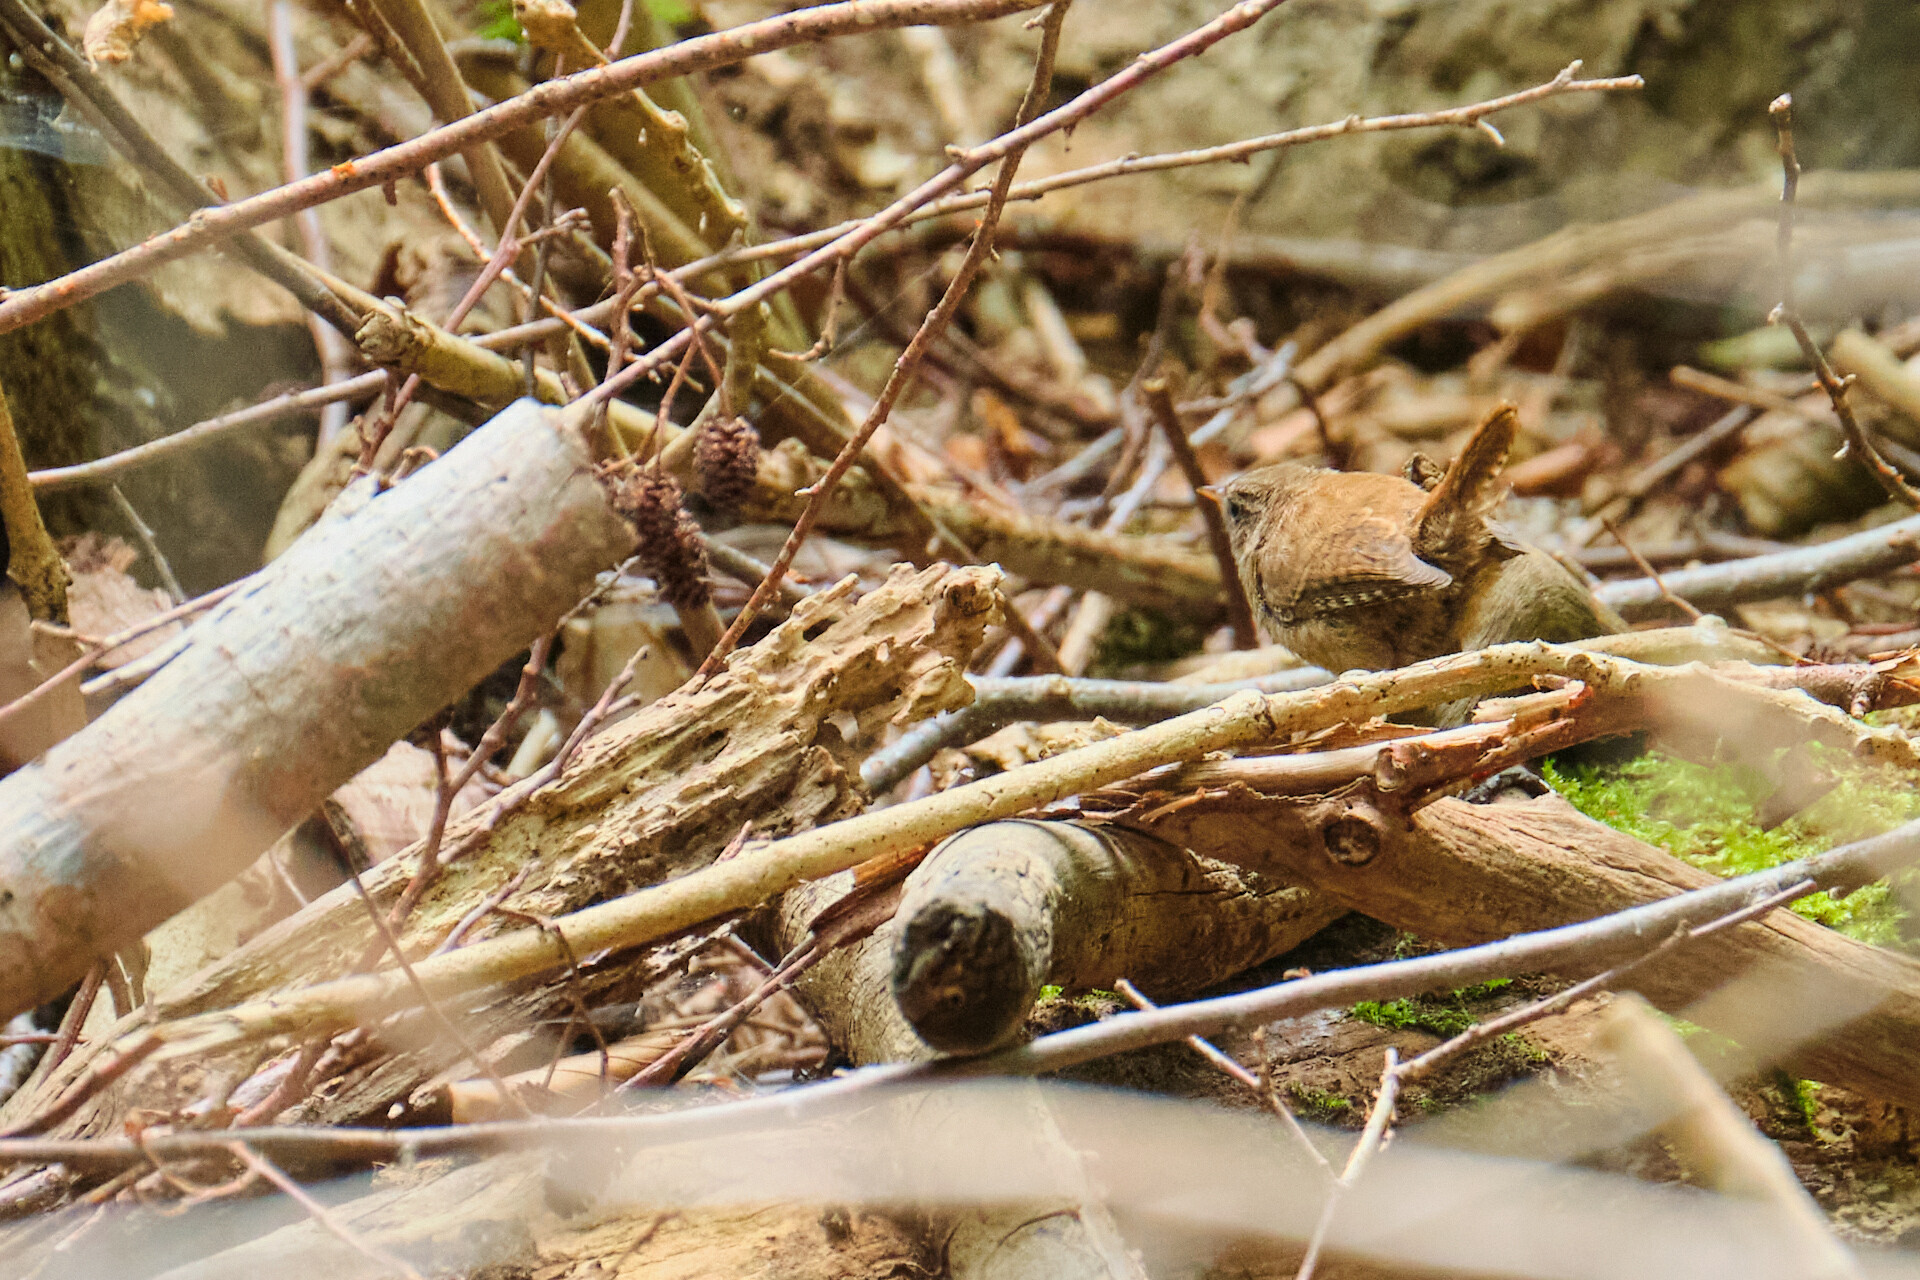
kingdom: Animalia
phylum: Chordata
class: Aves
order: Passeriformes
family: Troglodytidae
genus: Troglodytes
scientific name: Troglodytes troglodytes
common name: Eurasian wren
